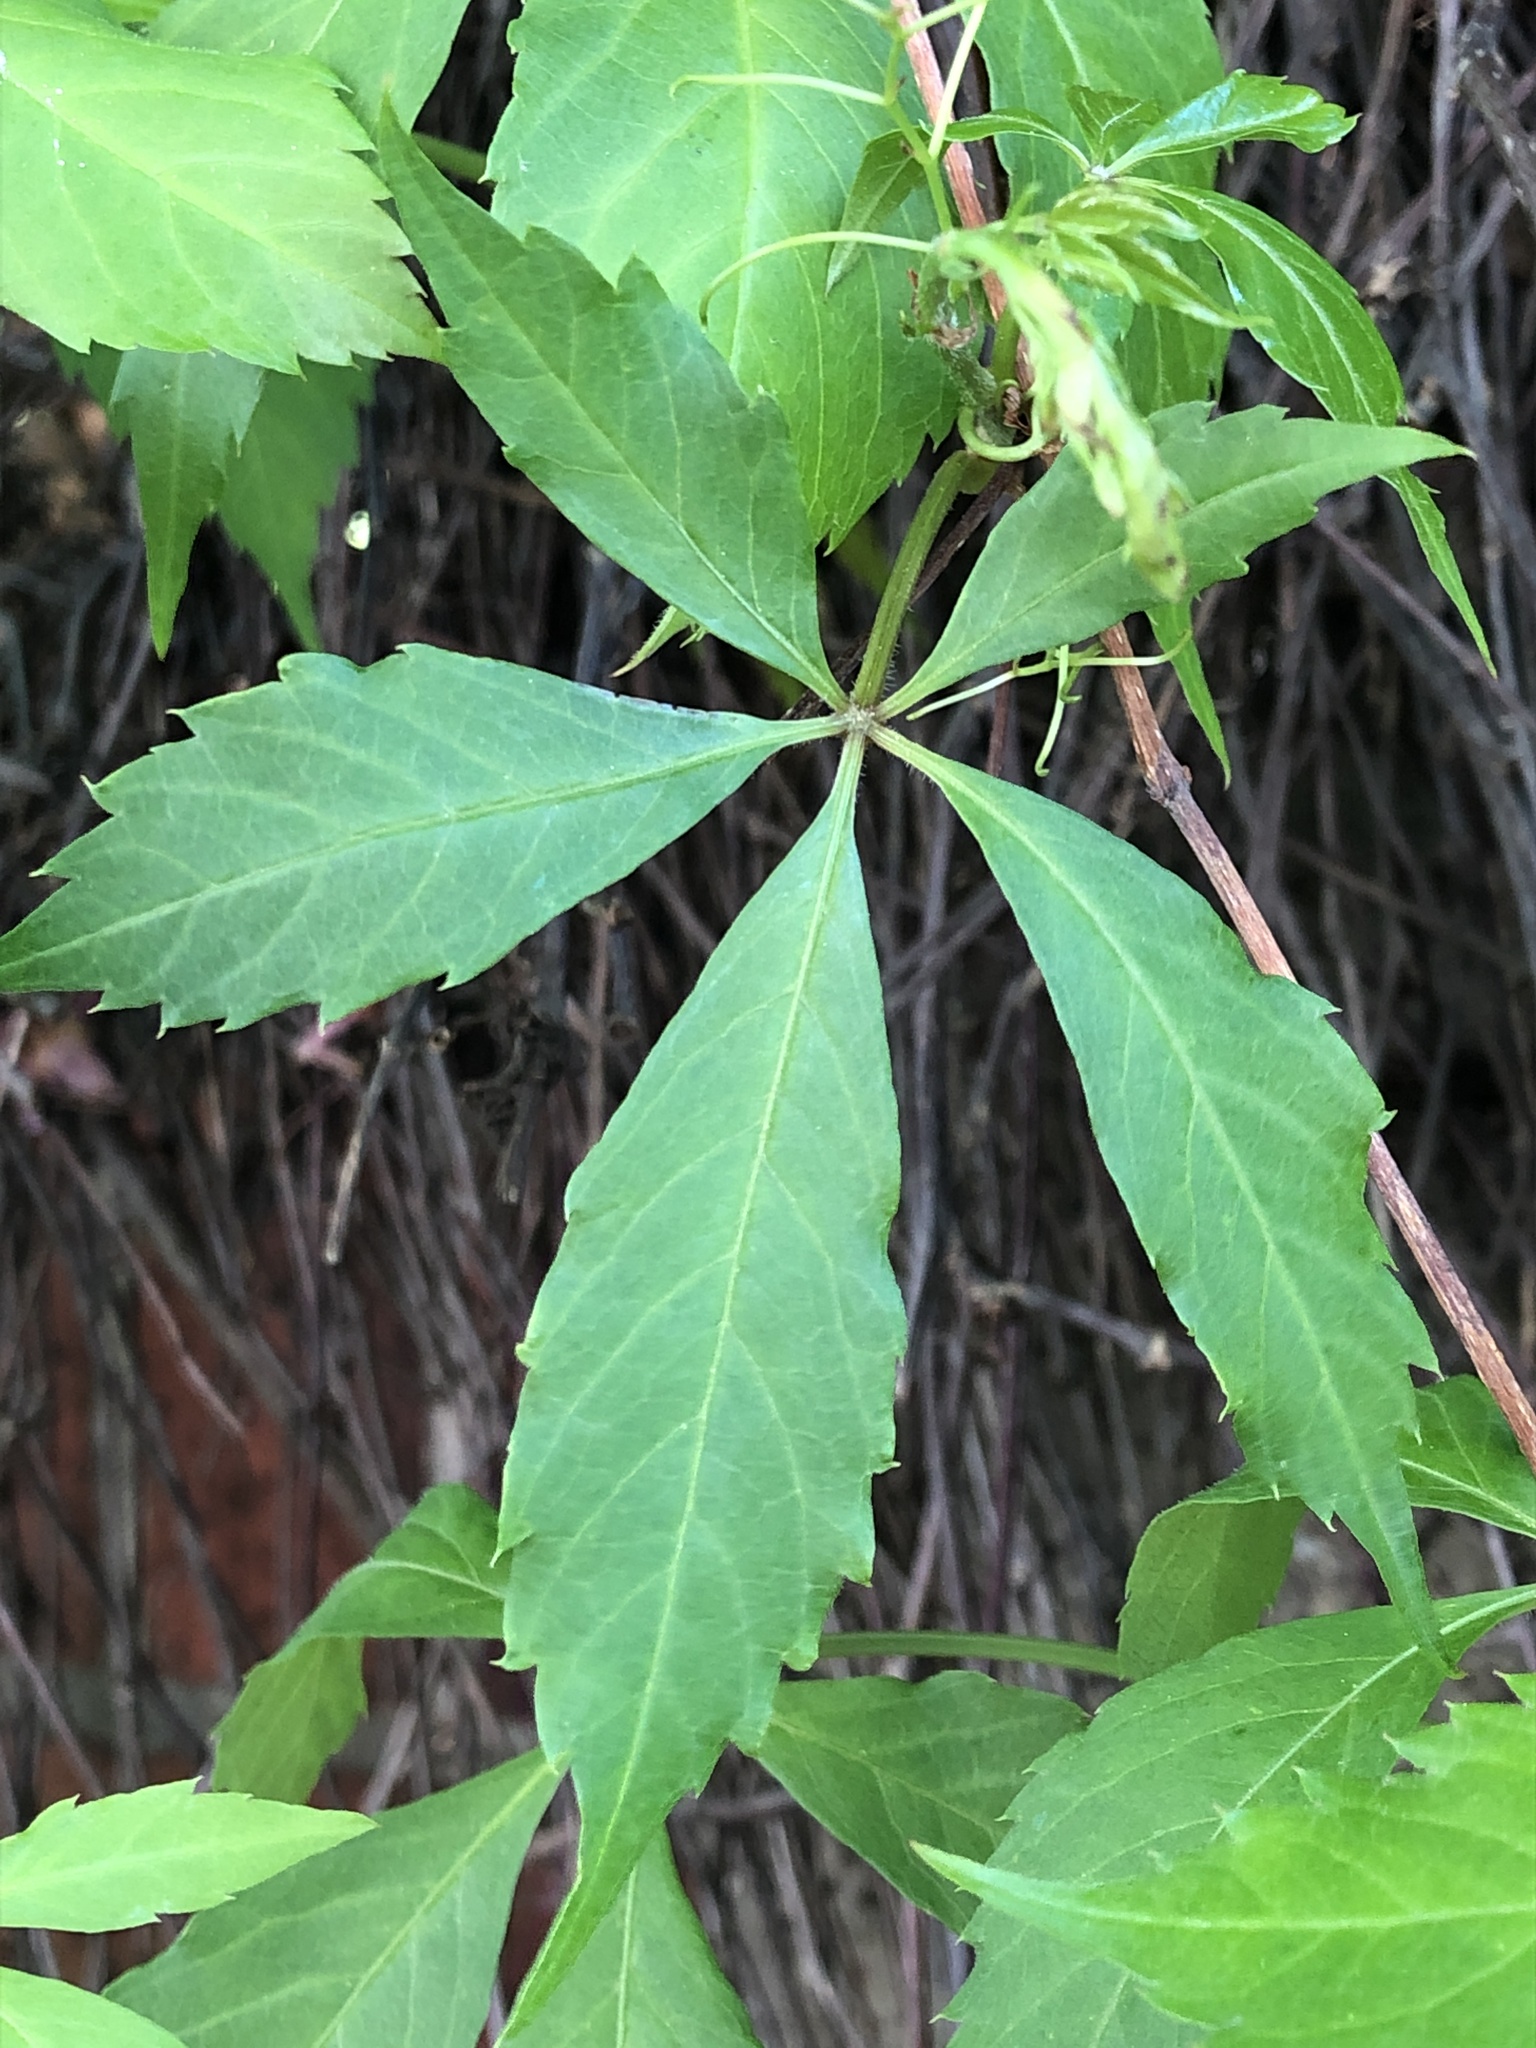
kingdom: Plantae
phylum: Tracheophyta
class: Magnoliopsida
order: Vitales
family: Vitaceae
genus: Parthenocissus
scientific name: Parthenocissus quinquefolia
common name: Virginia-creeper
